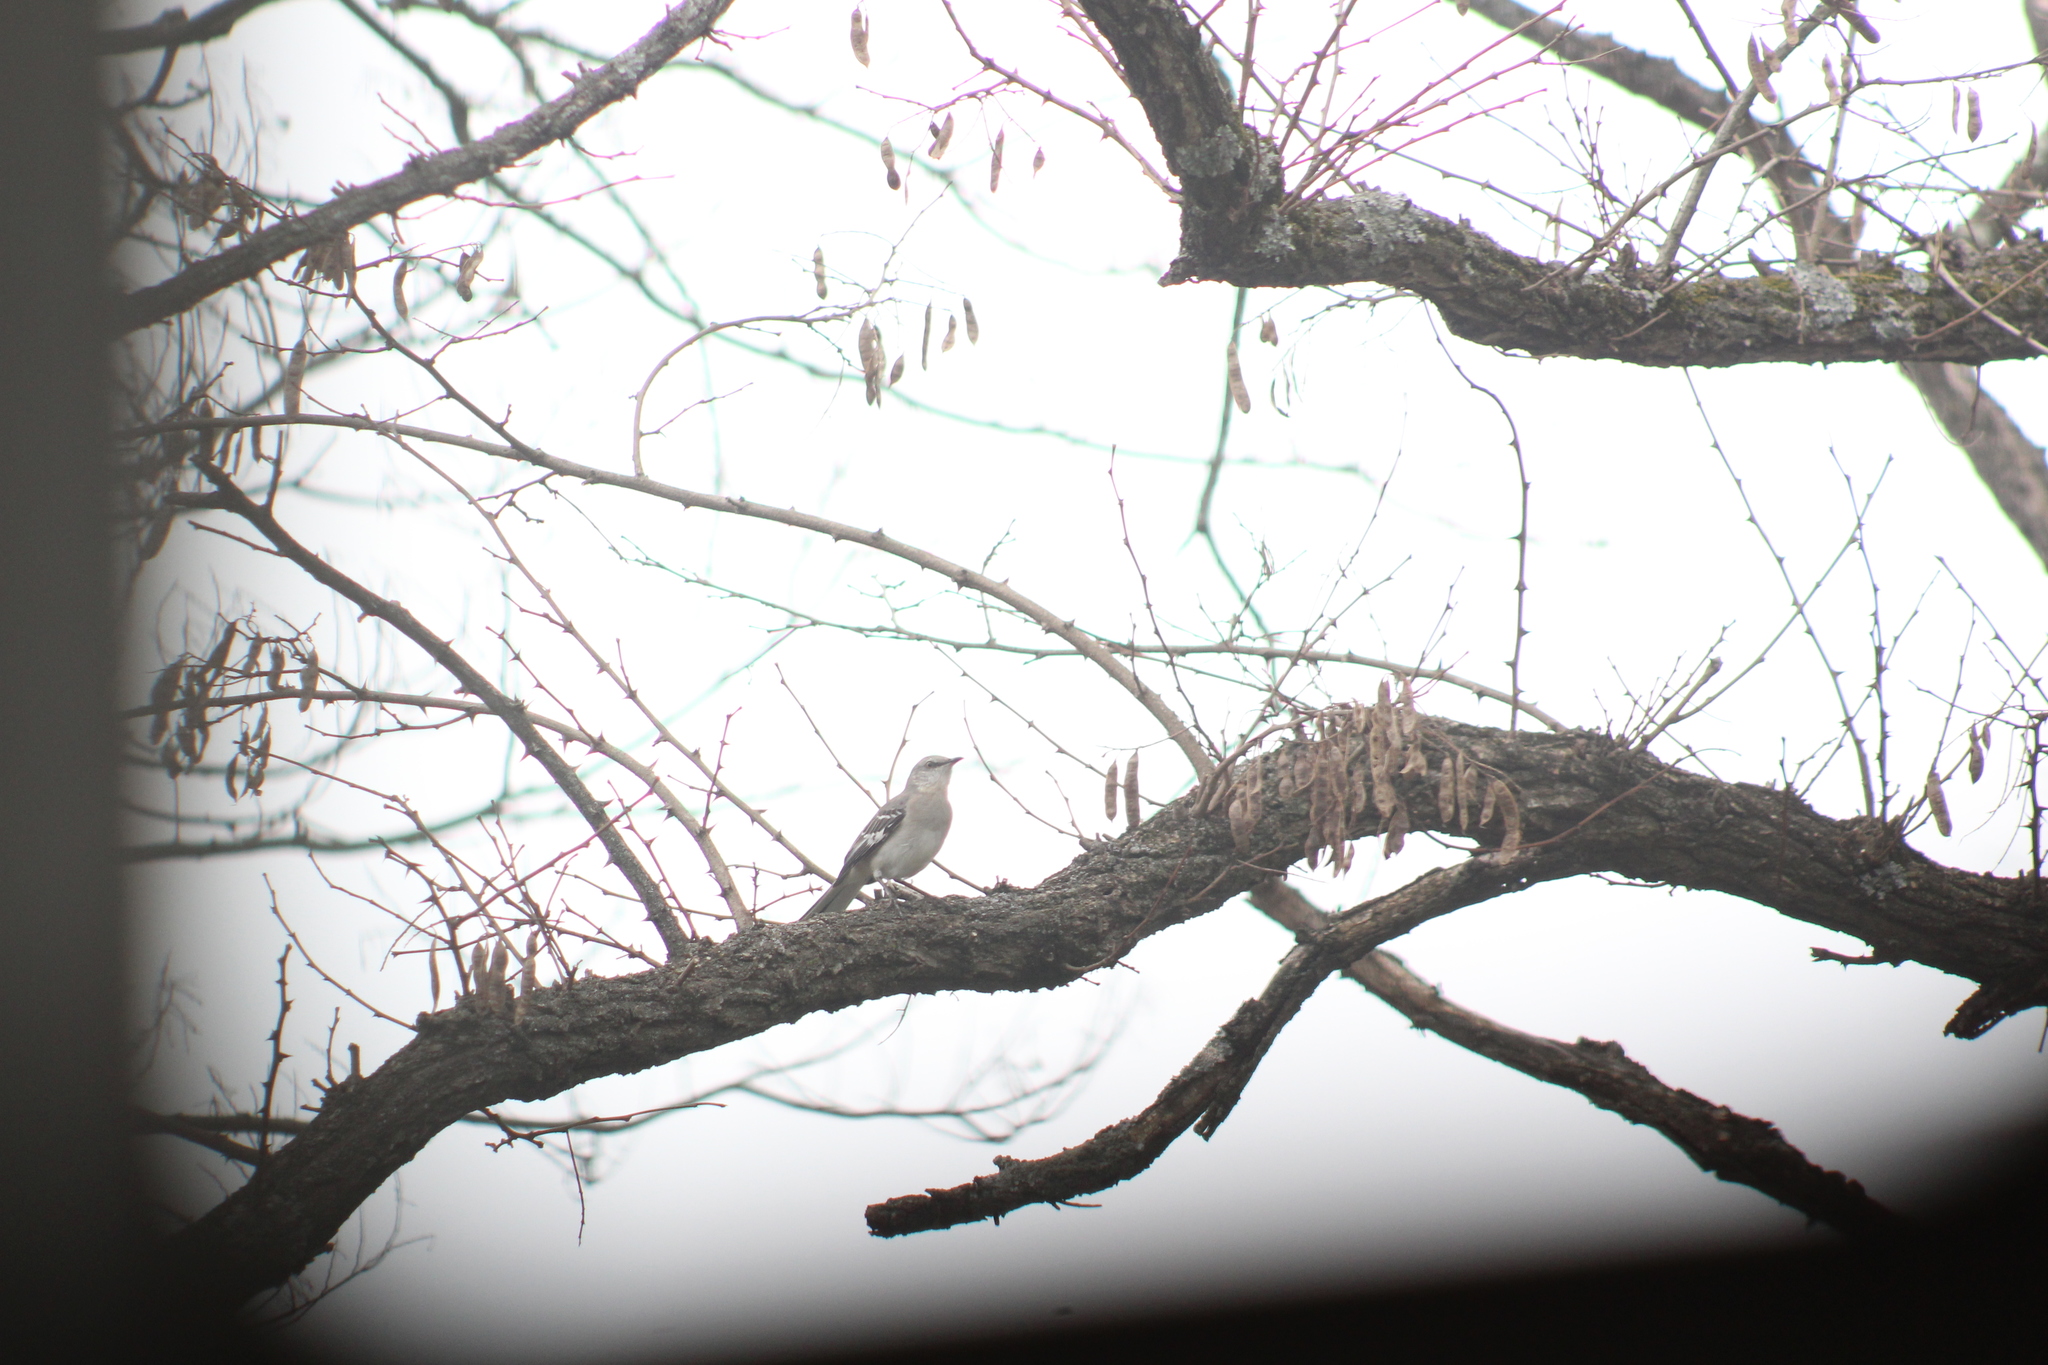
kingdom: Animalia
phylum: Chordata
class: Aves
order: Passeriformes
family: Mimidae
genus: Mimus
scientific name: Mimus polyglottos
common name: Northern mockingbird
